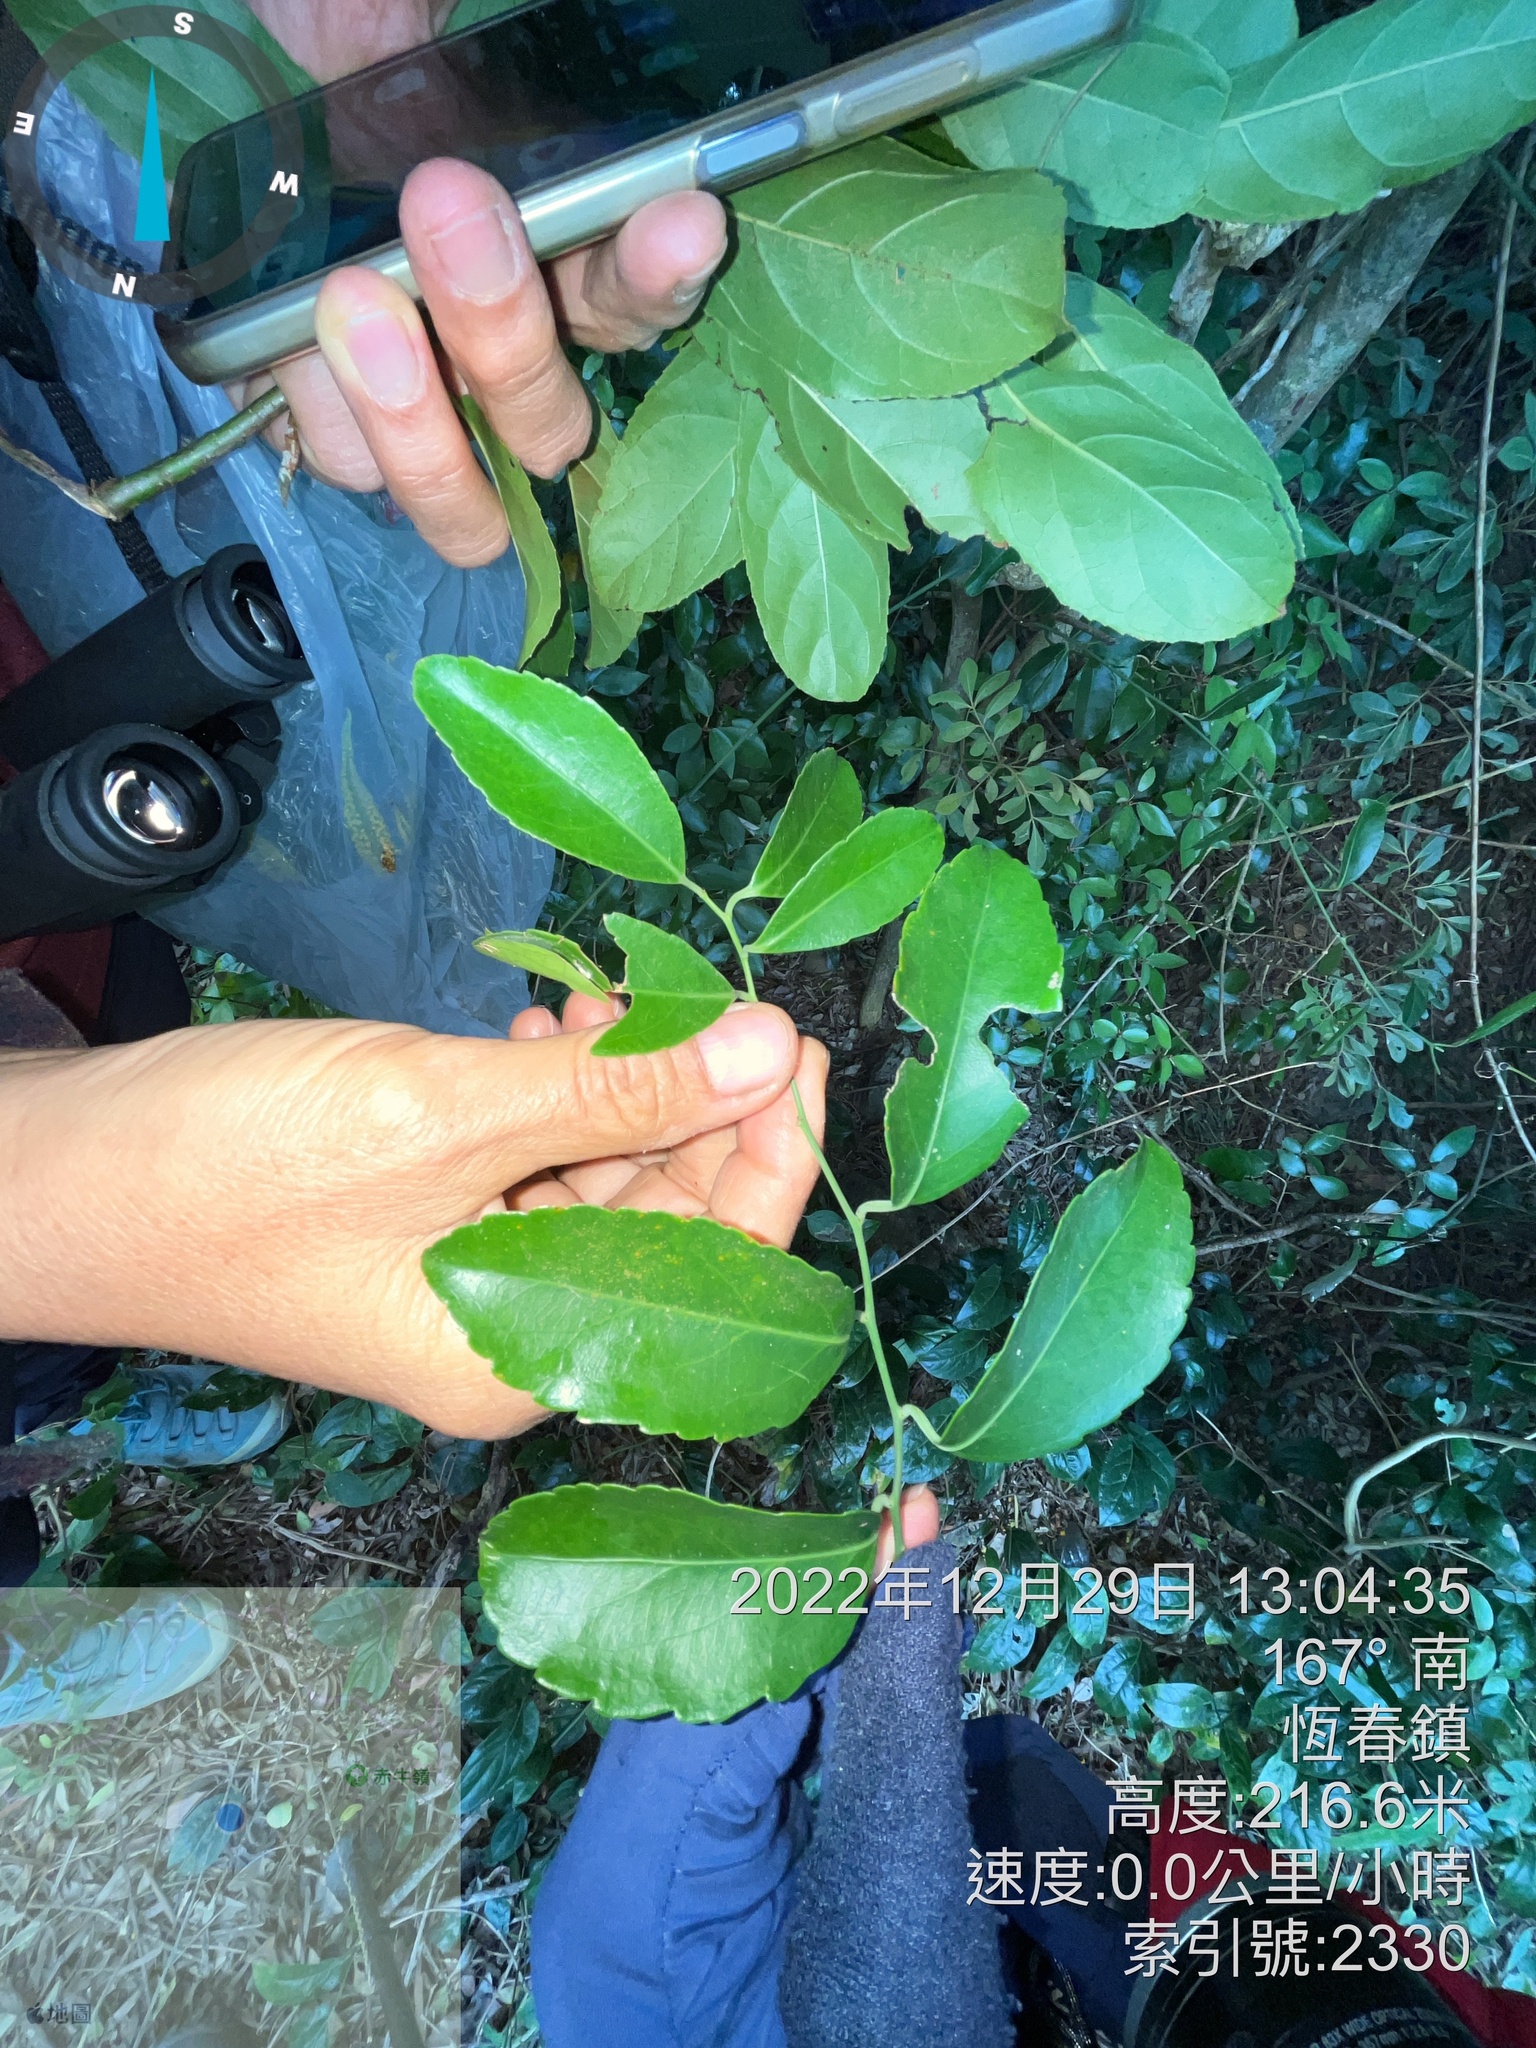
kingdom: Plantae
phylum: Tracheophyta
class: Magnoliopsida
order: Celastrales
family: Celastraceae
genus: Celastrus
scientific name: Celastrus paniculatus
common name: Oriental bittersweet; staff vine
